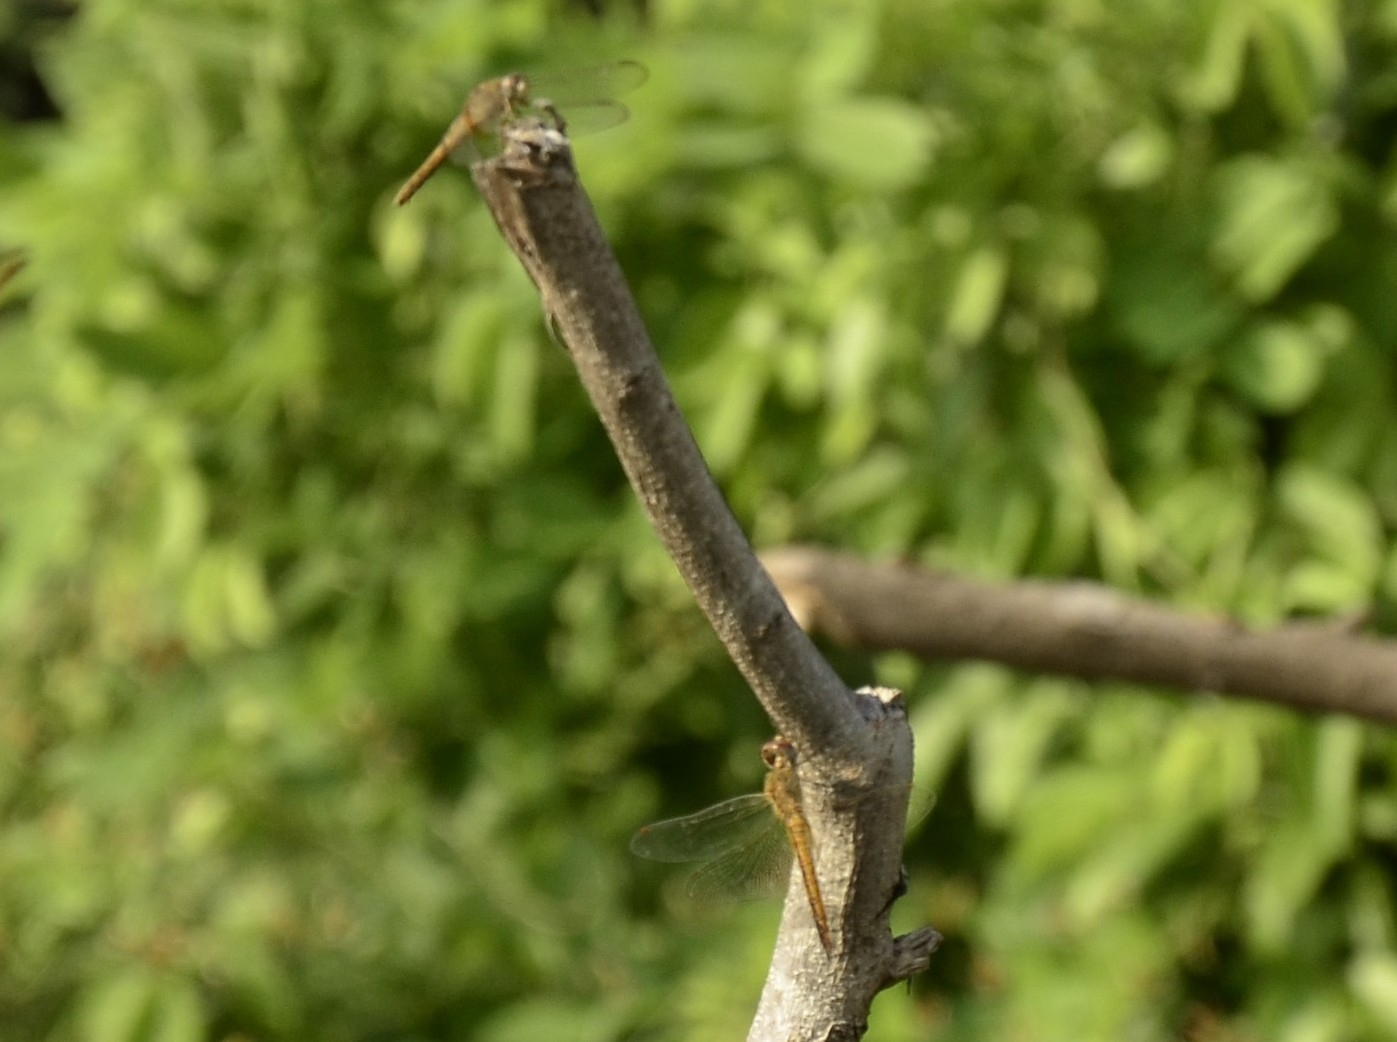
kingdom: Animalia
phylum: Arthropoda
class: Insecta
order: Odonata
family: Libellulidae
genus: Pantala
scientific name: Pantala flavescens
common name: Wandering glider
